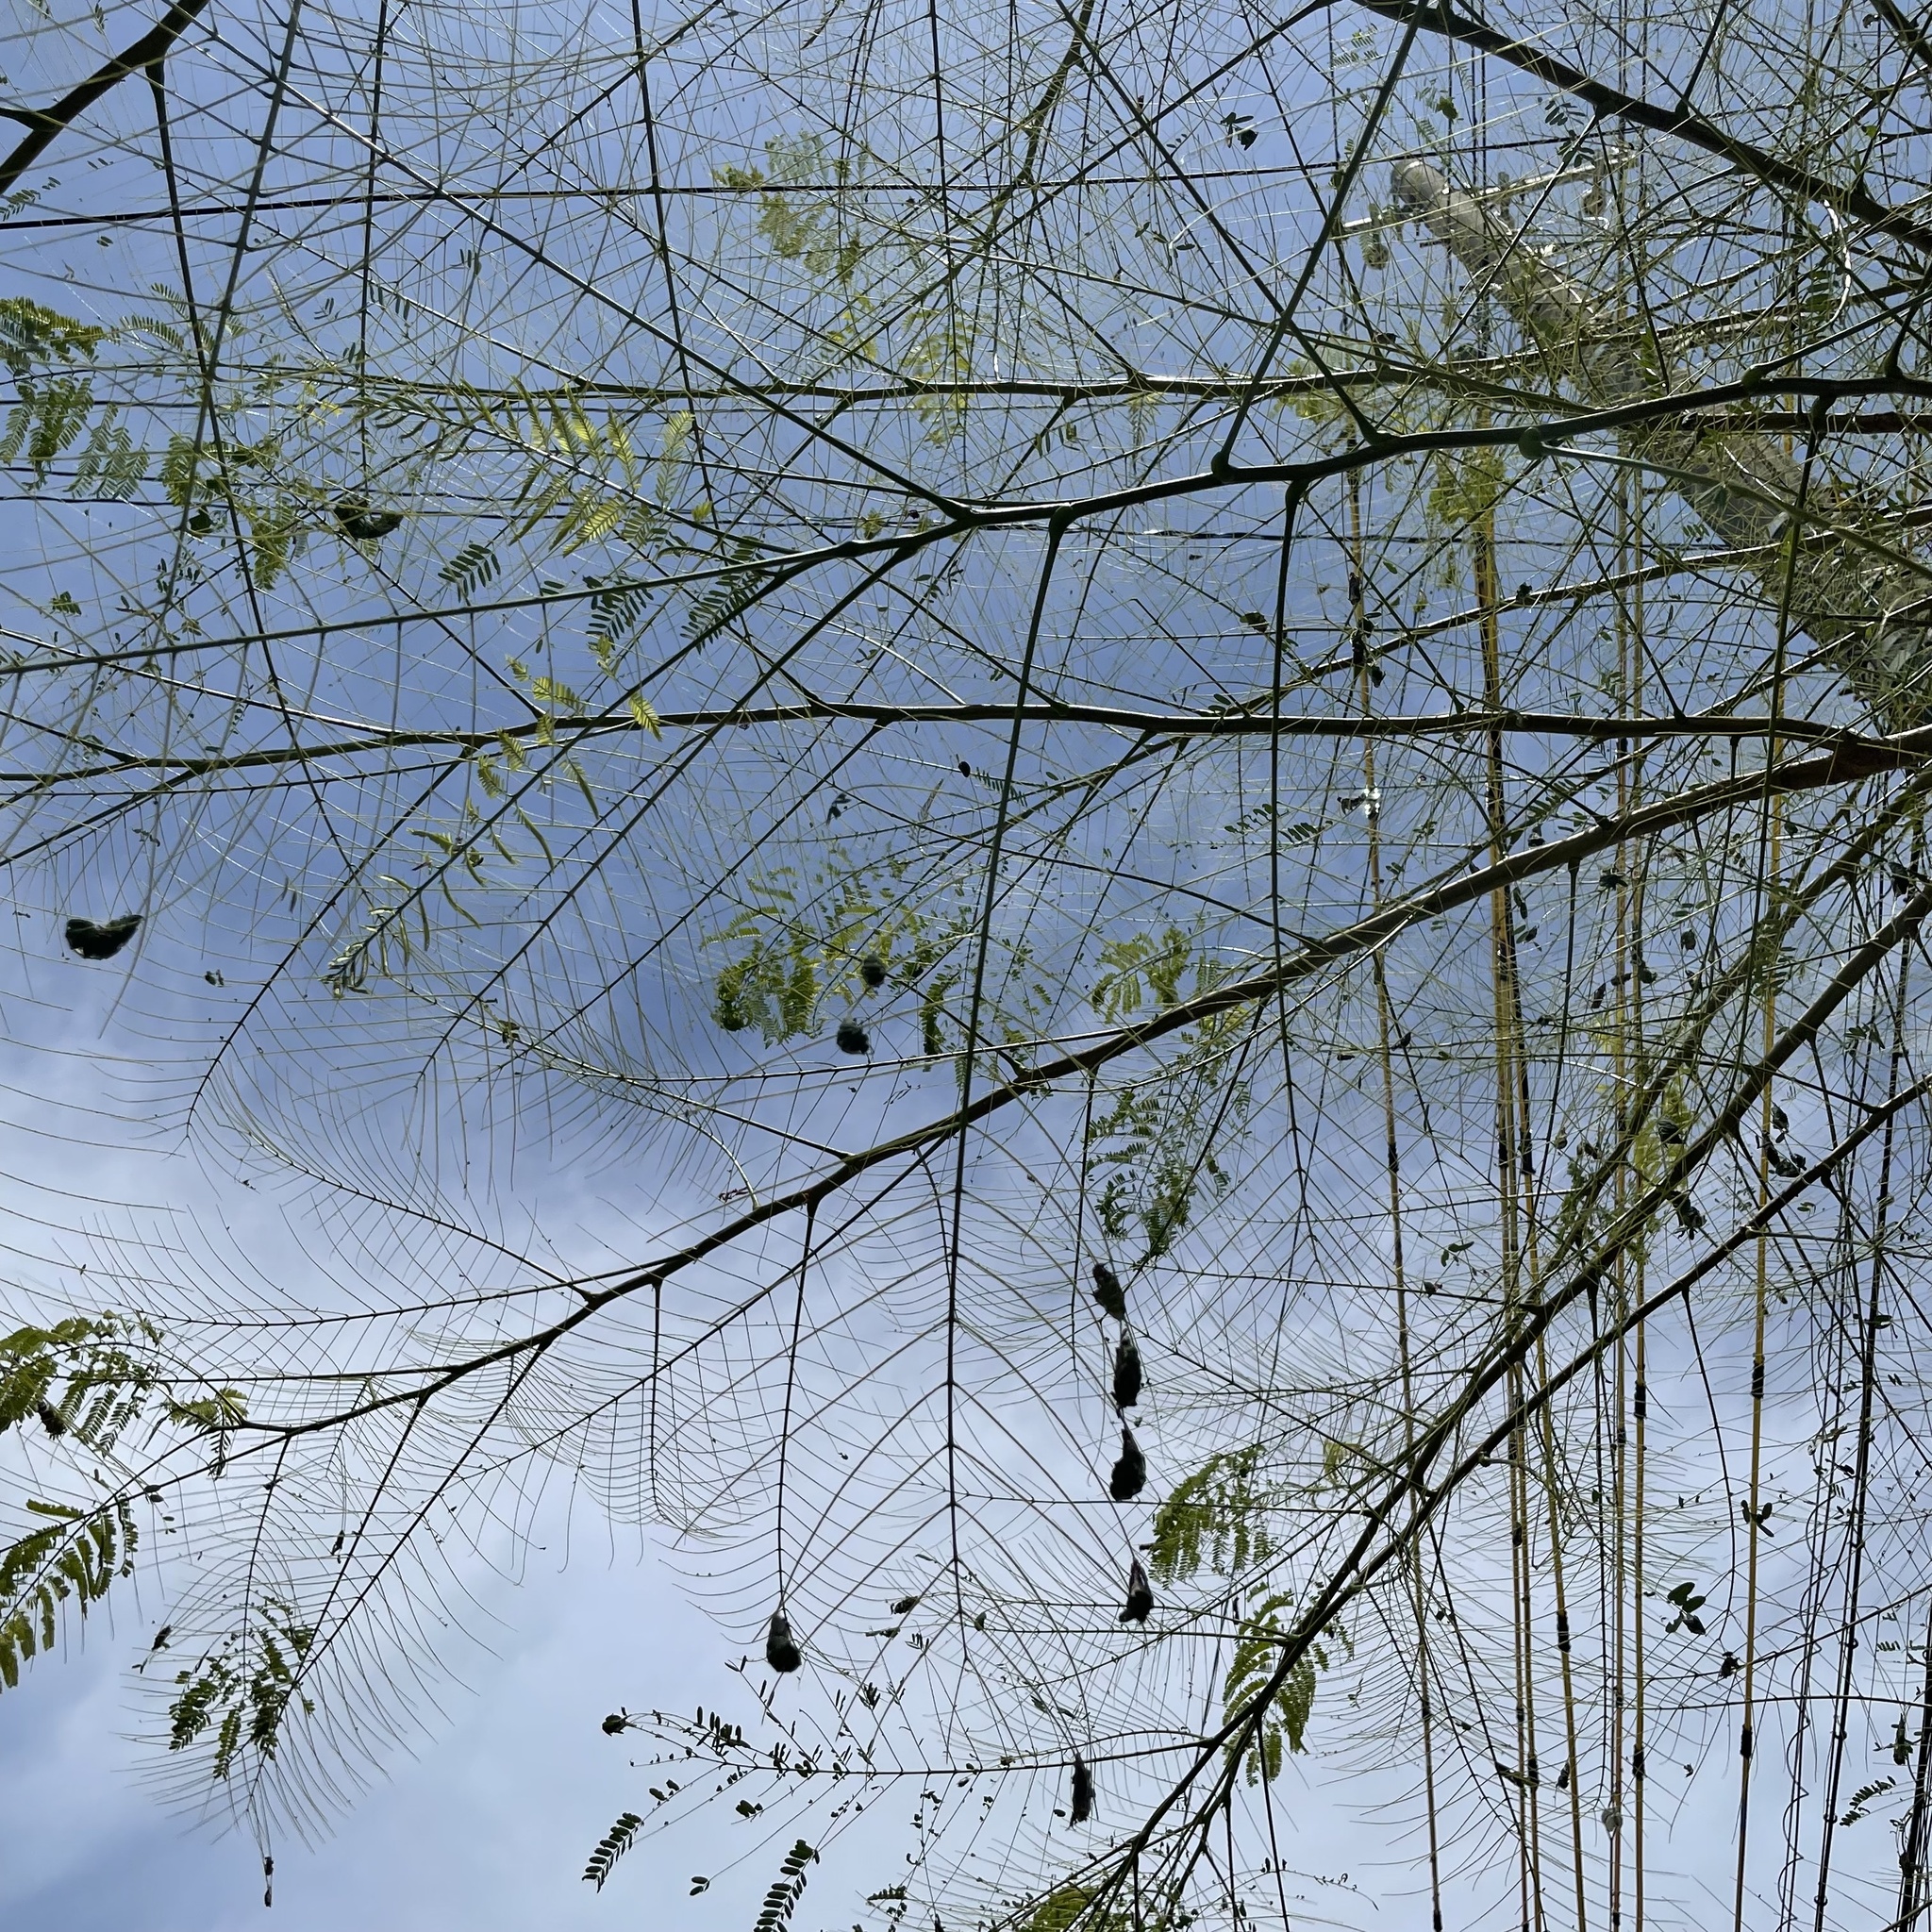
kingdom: Animalia
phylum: Arthropoda
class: Insecta
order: Lepidoptera
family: Erebidae
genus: Pericyma
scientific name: Pericyma cruegeri
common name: Poinciana looper
